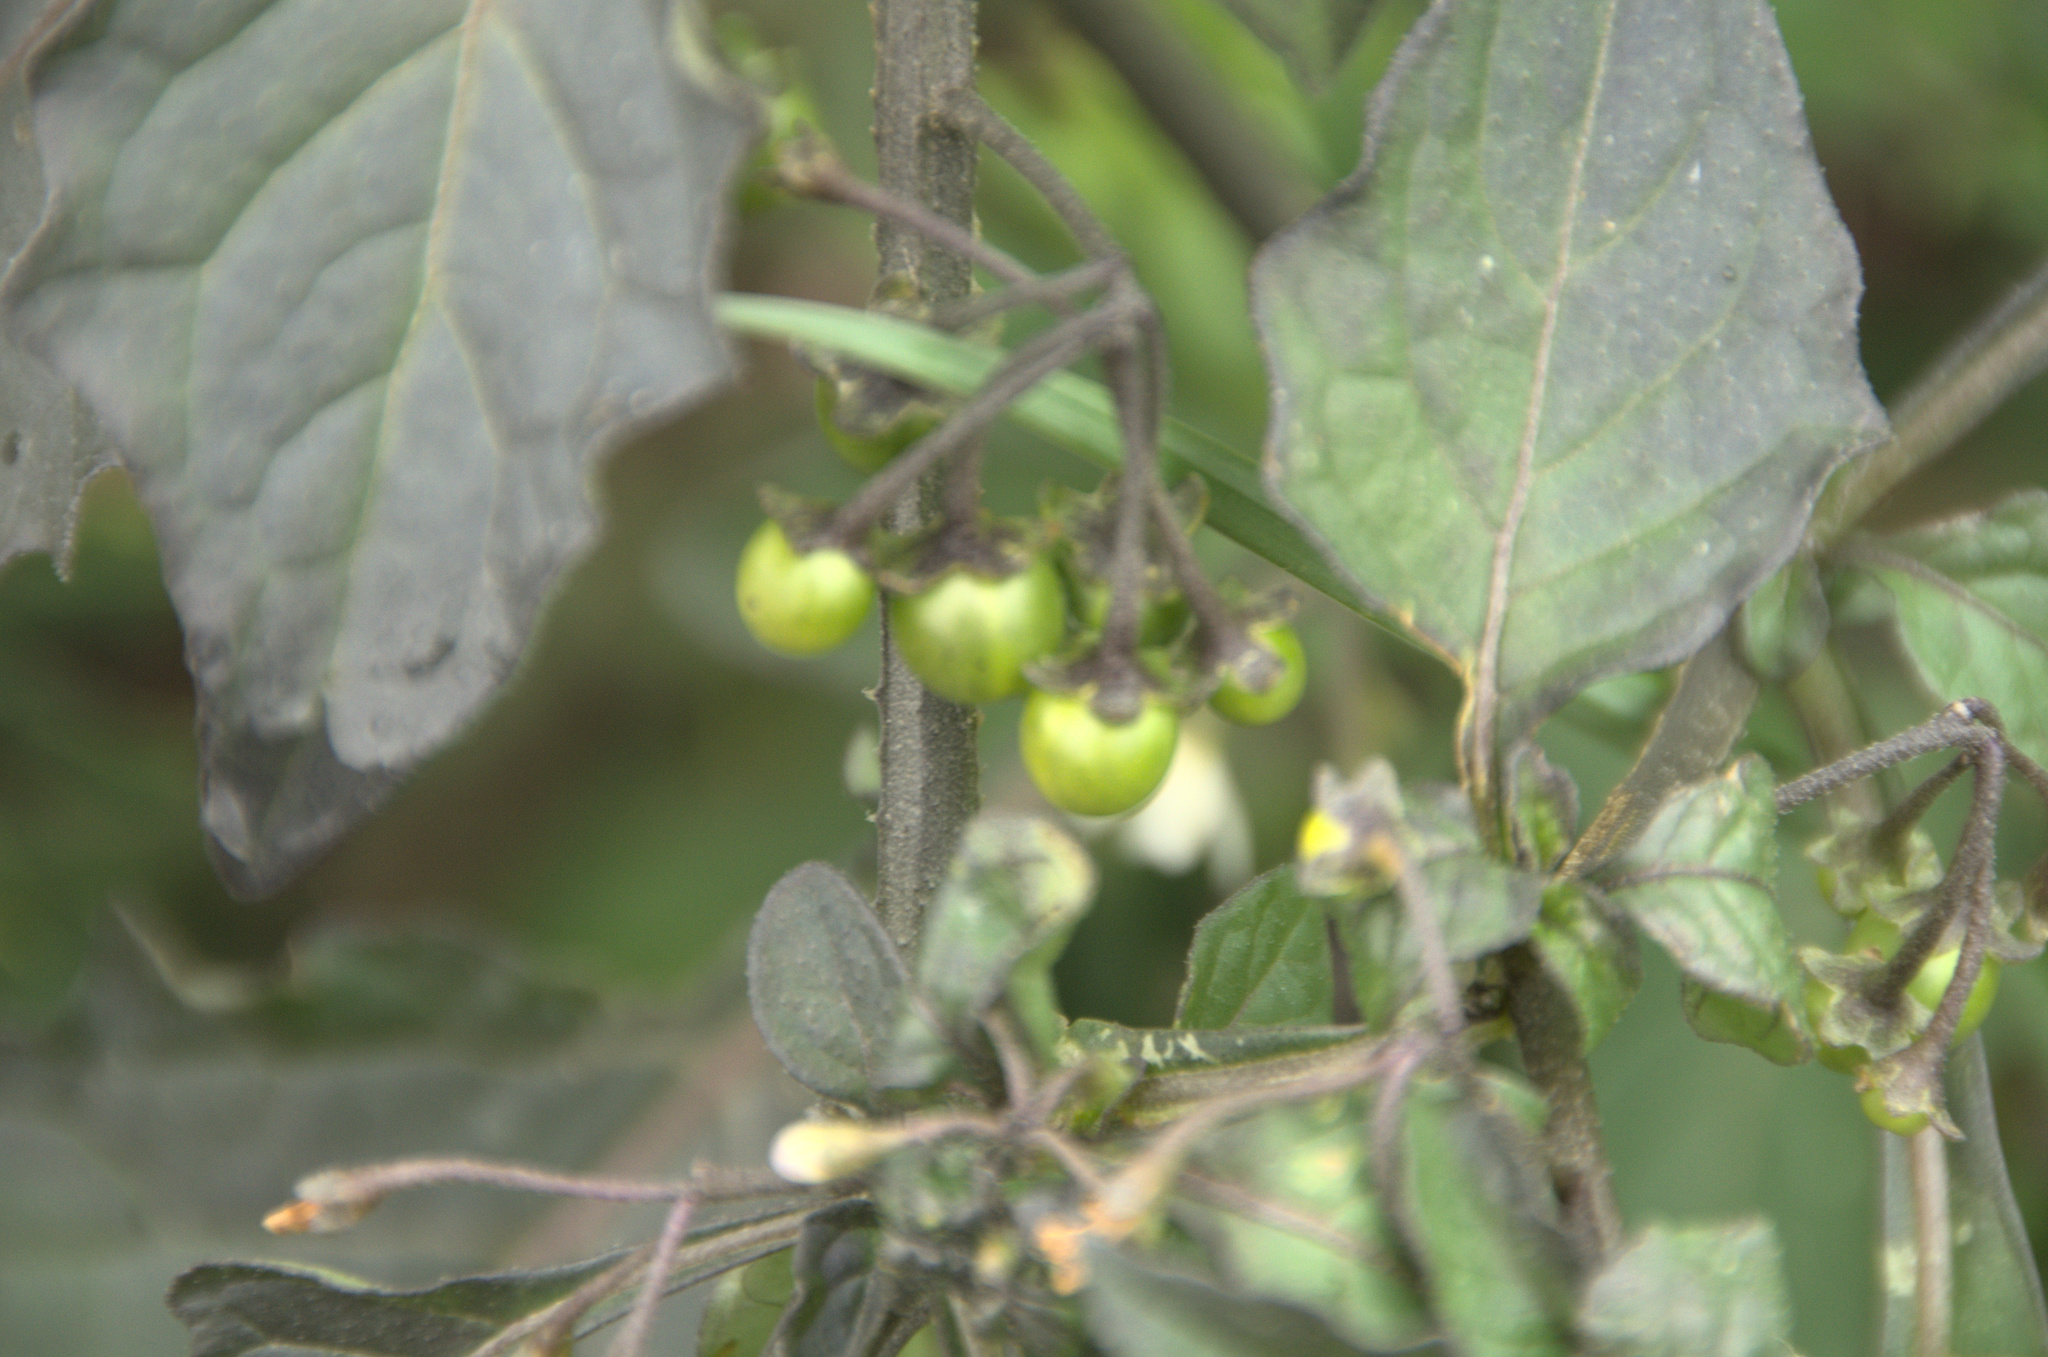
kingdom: Plantae
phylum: Tracheophyta
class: Magnoliopsida
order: Solanales
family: Solanaceae
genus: Solanum
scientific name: Solanum nigrum
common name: Black nightshade
